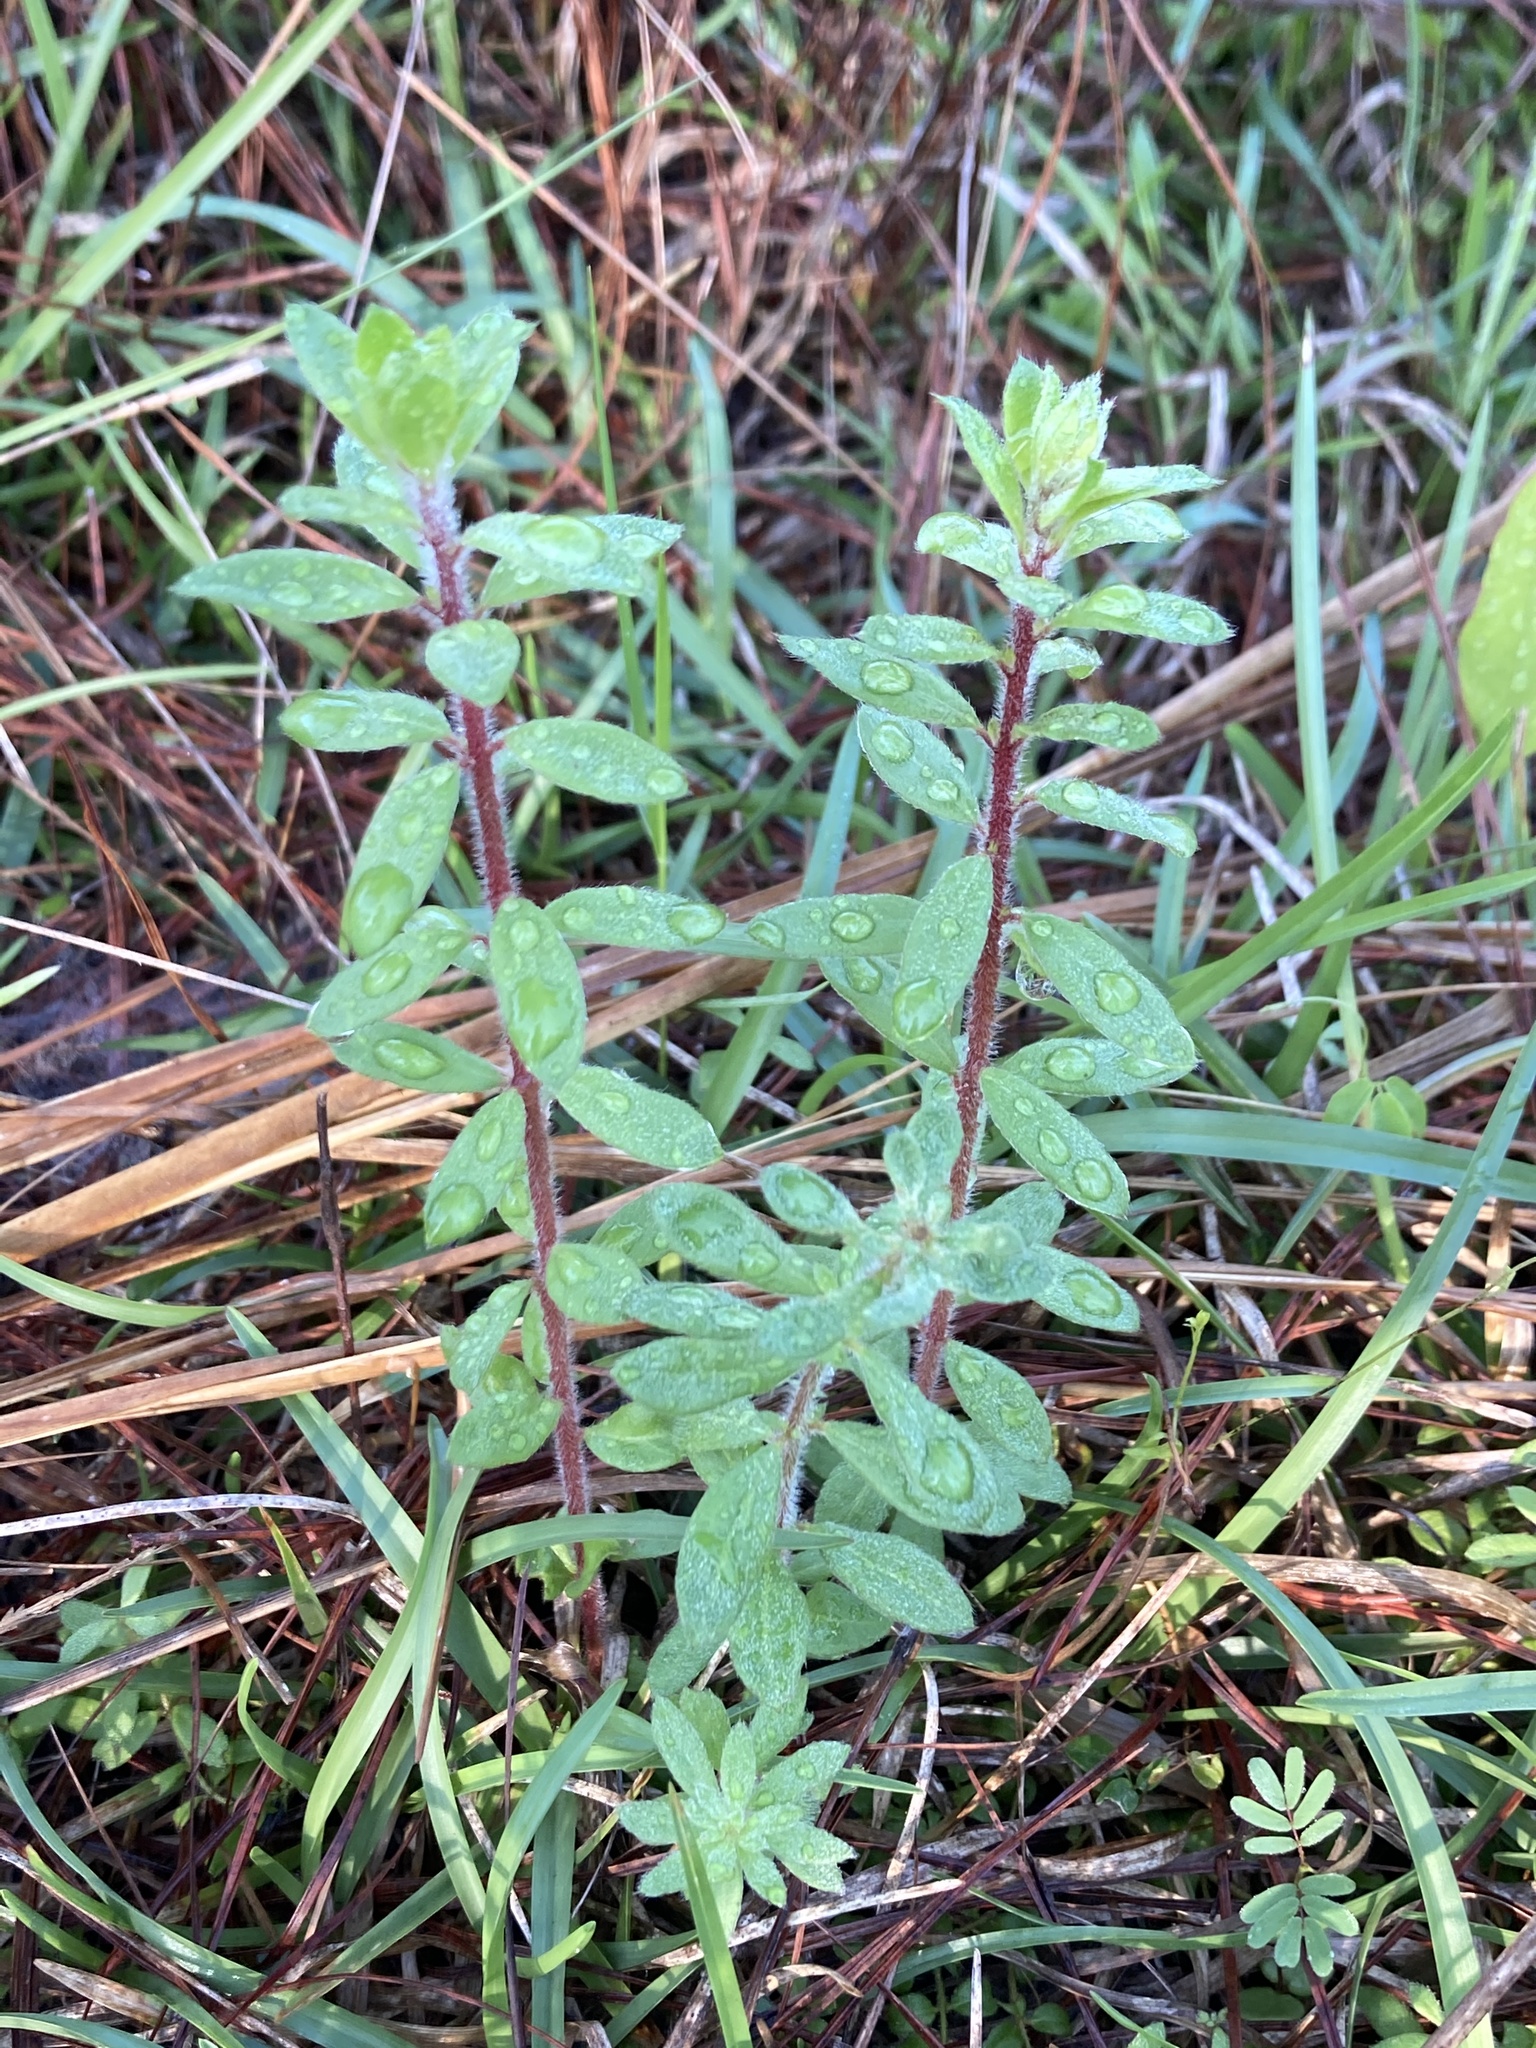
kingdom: Plantae
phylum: Tracheophyta
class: Magnoliopsida
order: Malvales
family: Cistaceae
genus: Lechea
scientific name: Lechea mucronata
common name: Hairy pinweed
